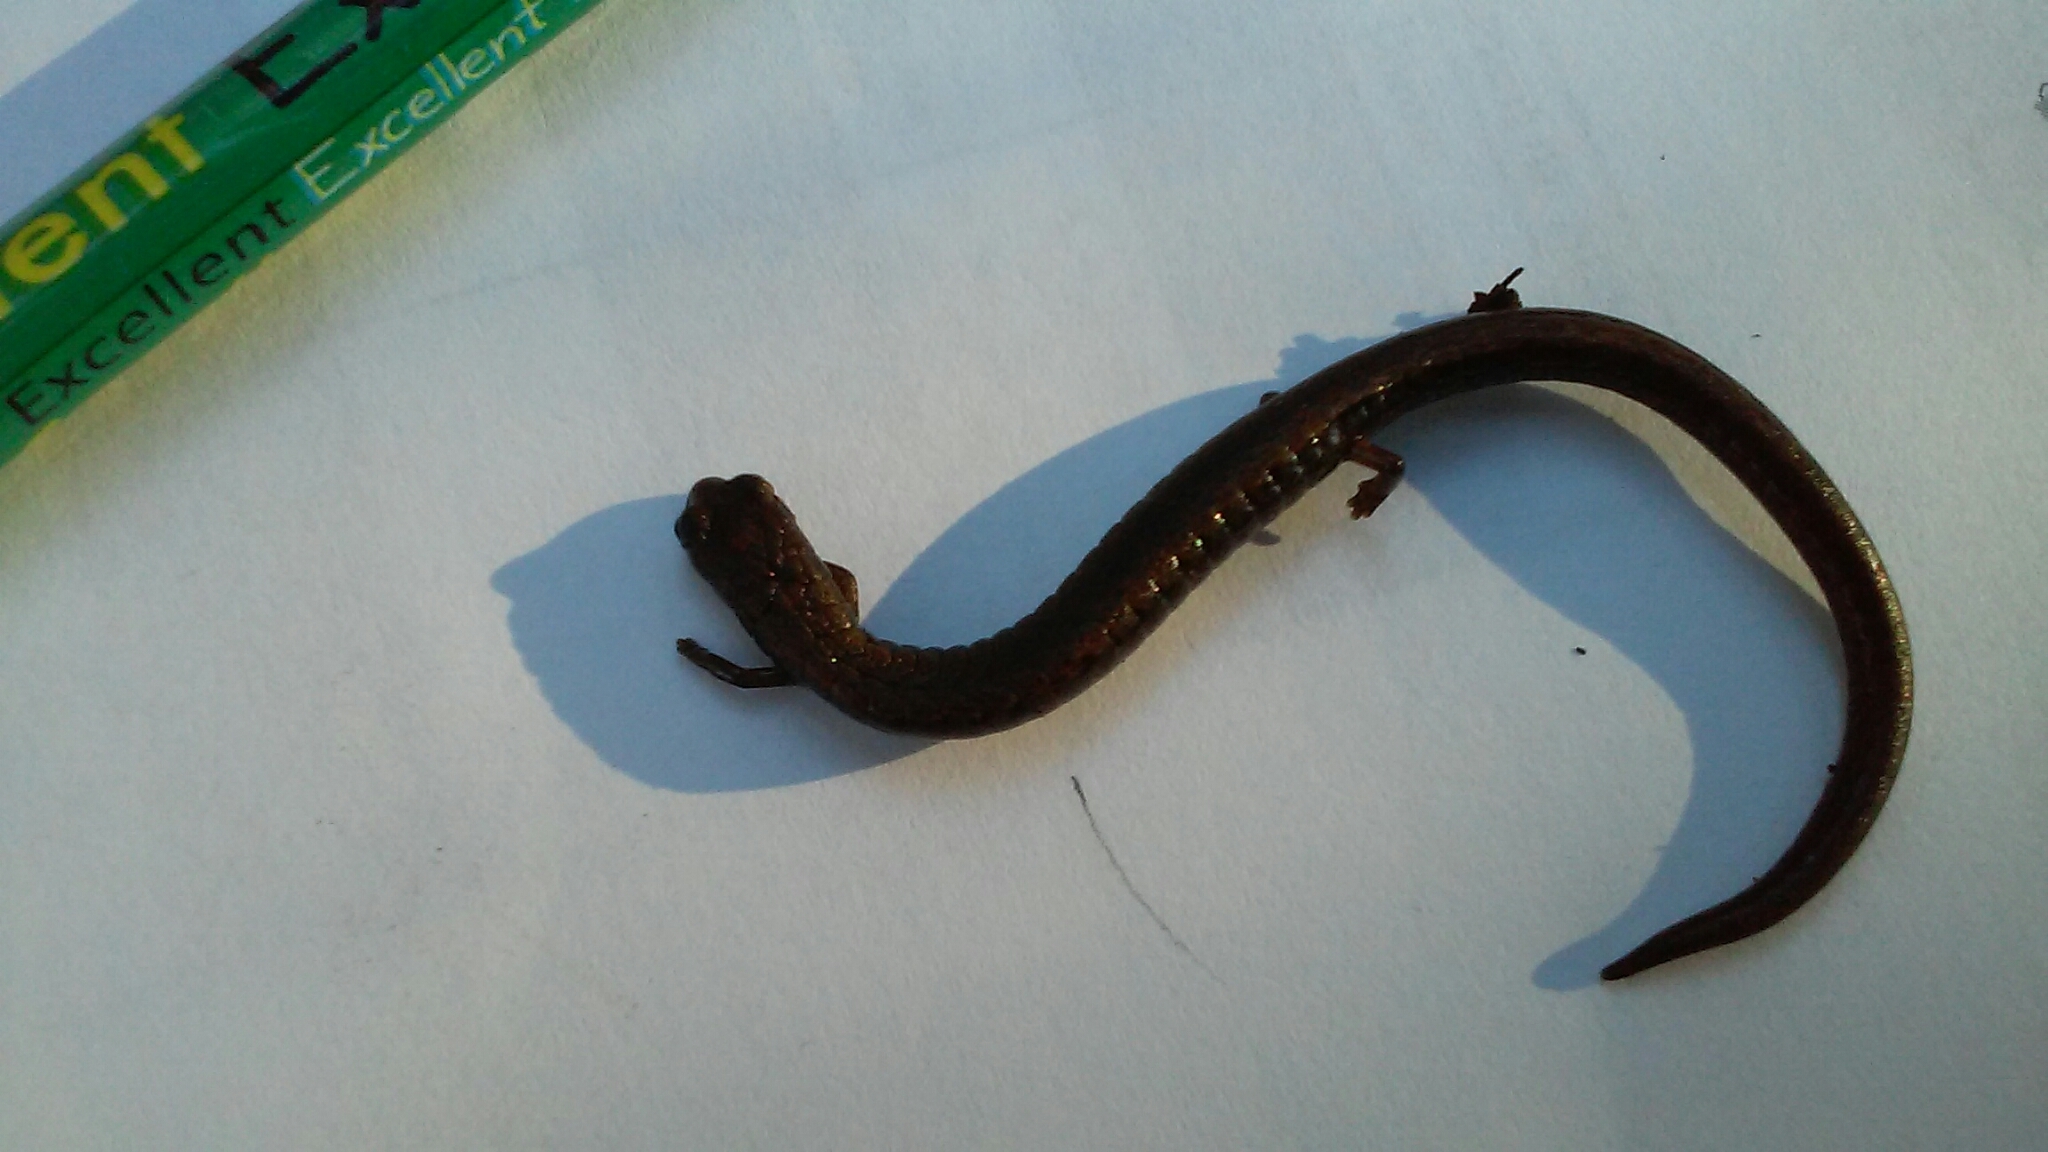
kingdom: Animalia
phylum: Chordata
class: Amphibia
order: Caudata
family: Plethodontidae
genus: Batrachoseps
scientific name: Batrachoseps attenuatus
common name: California slender salamander
